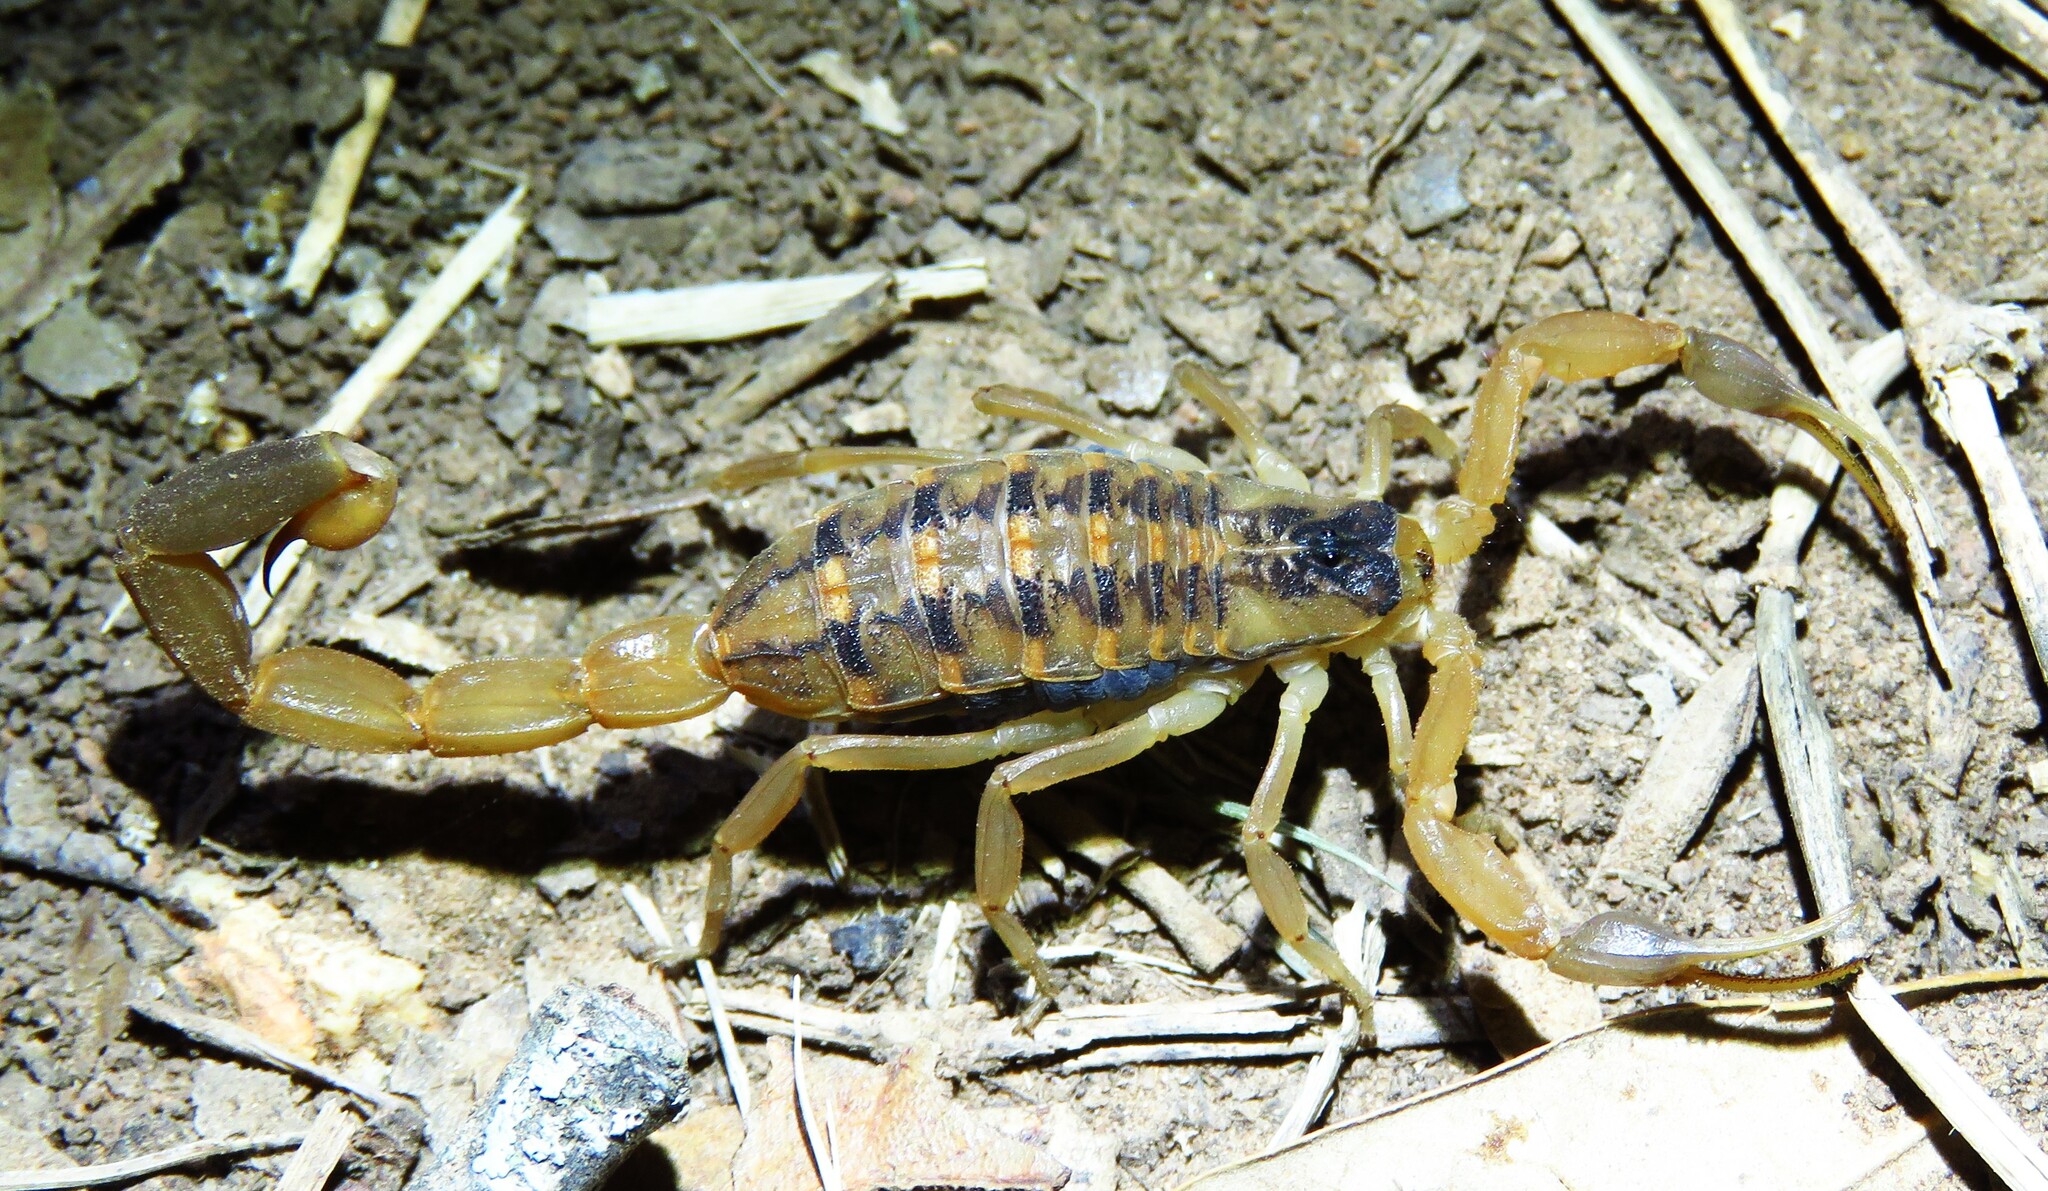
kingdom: Animalia
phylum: Arthropoda
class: Arachnida
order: Scorpiones
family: Buthidae
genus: Centruroides
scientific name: Centruroides vittatus
